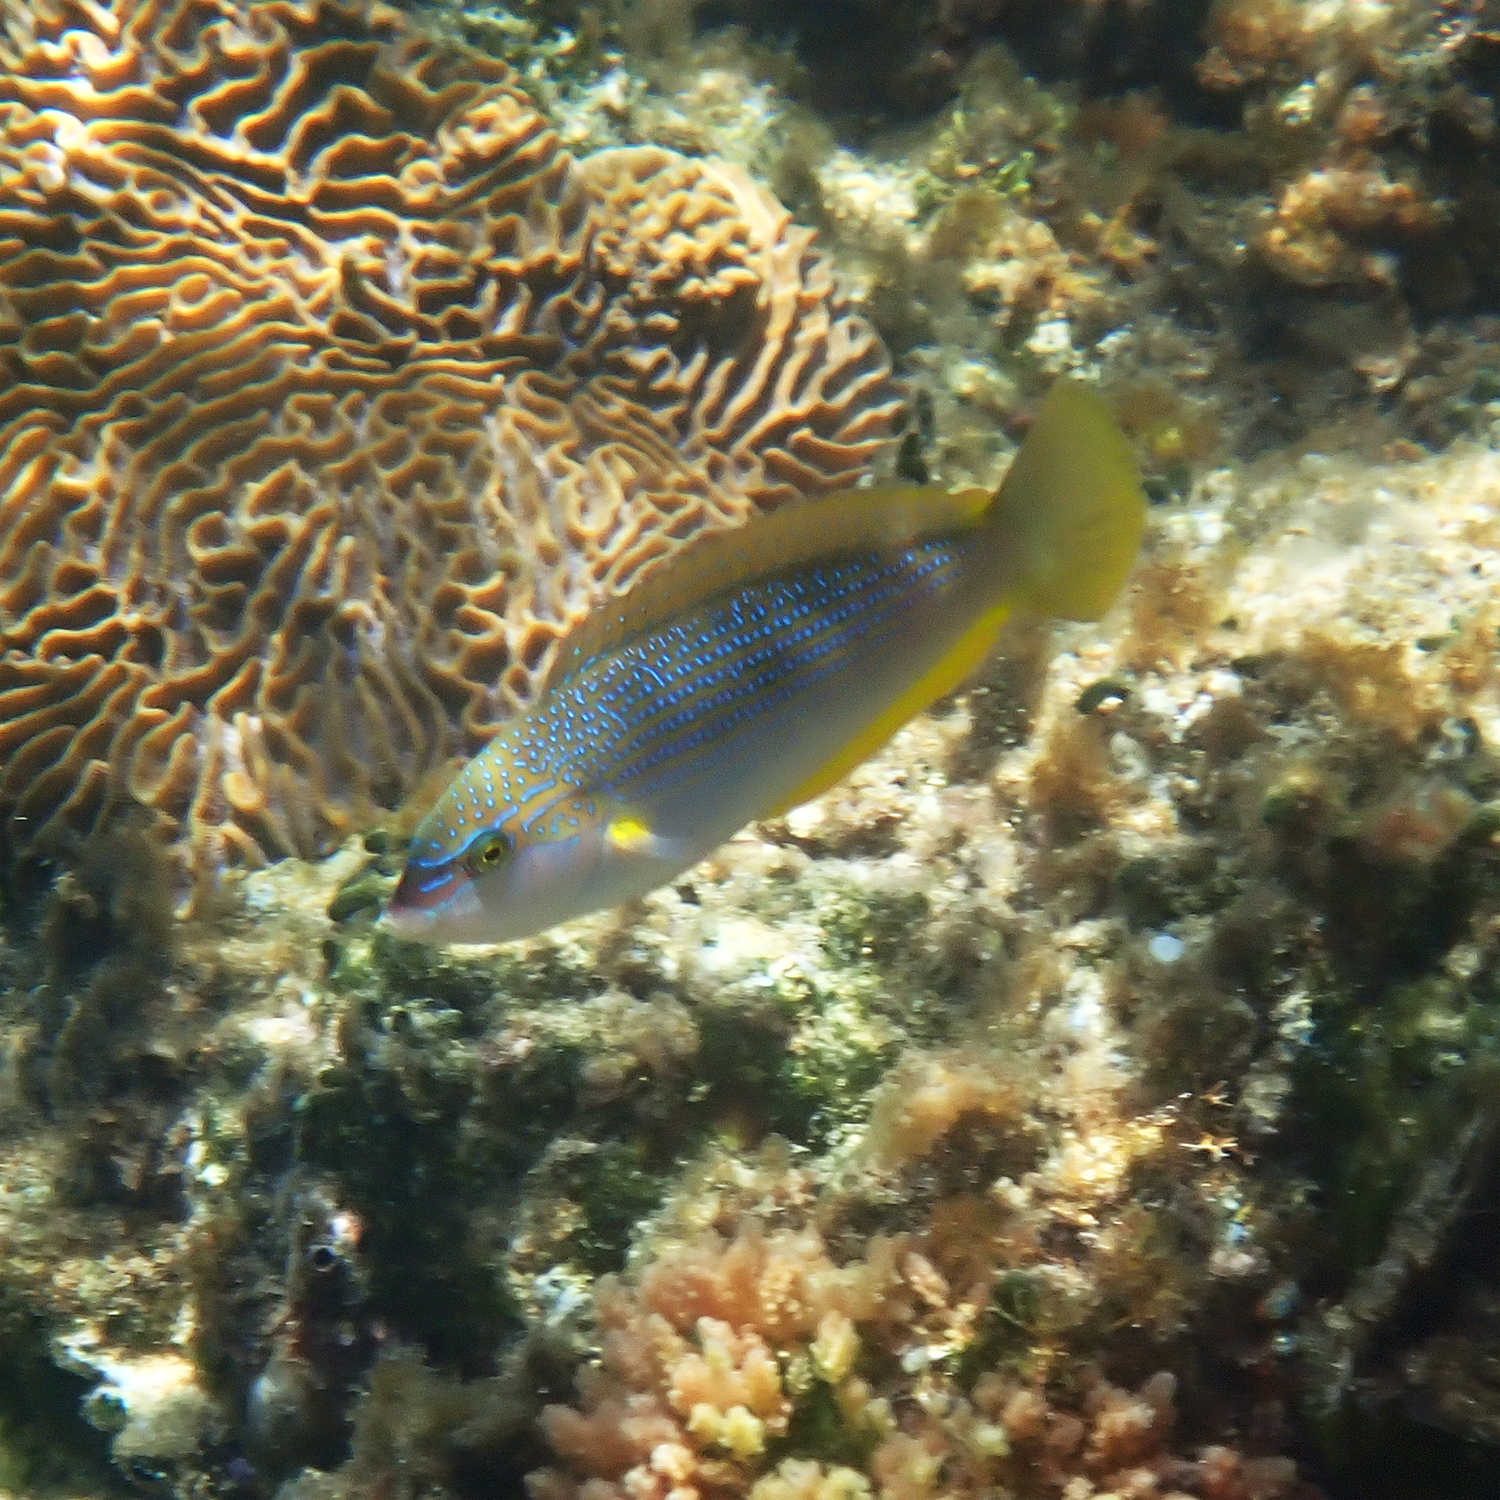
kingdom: Animalia
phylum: Chordata
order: Perciformes
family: Labridae
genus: Anampses
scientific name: Anampses elegans
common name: Elegant wrasse
